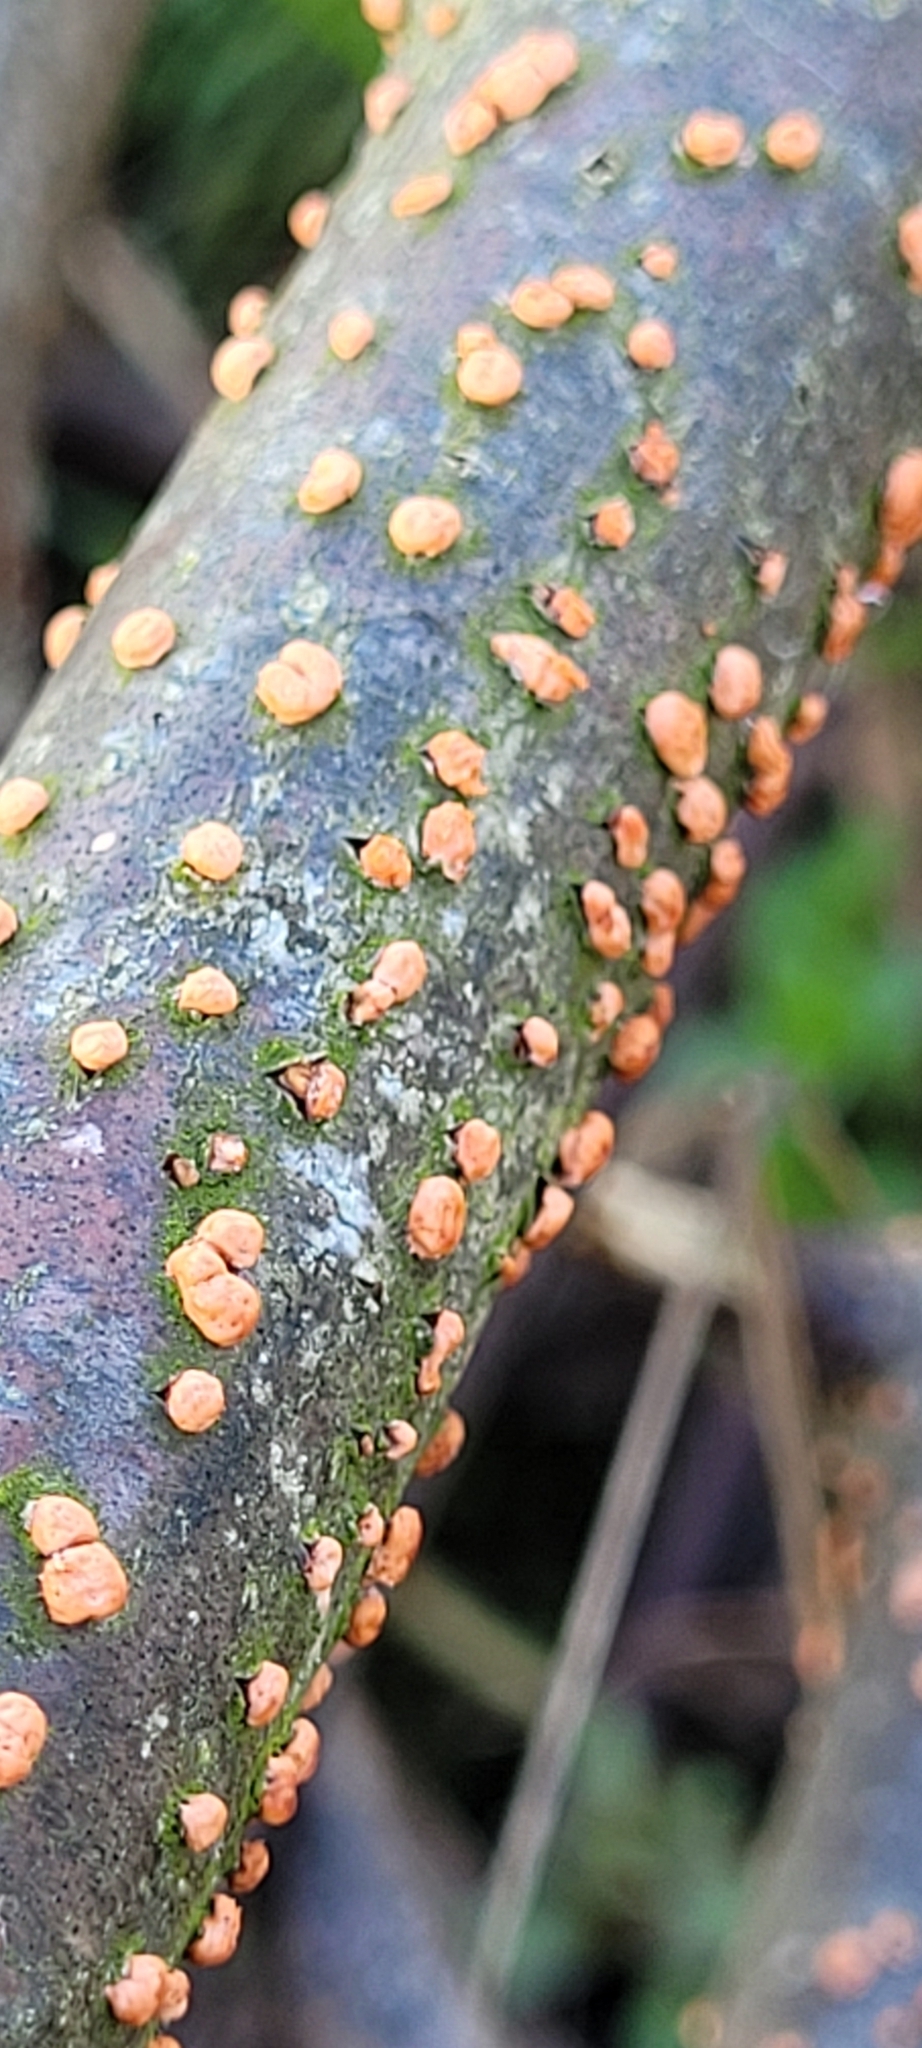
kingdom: Fungi
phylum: Ascomycota
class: Sordariomycetes
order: Hypocreales
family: Nectriaceae
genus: Nectria
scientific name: Nectria cinnabarina
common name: Coral spot
